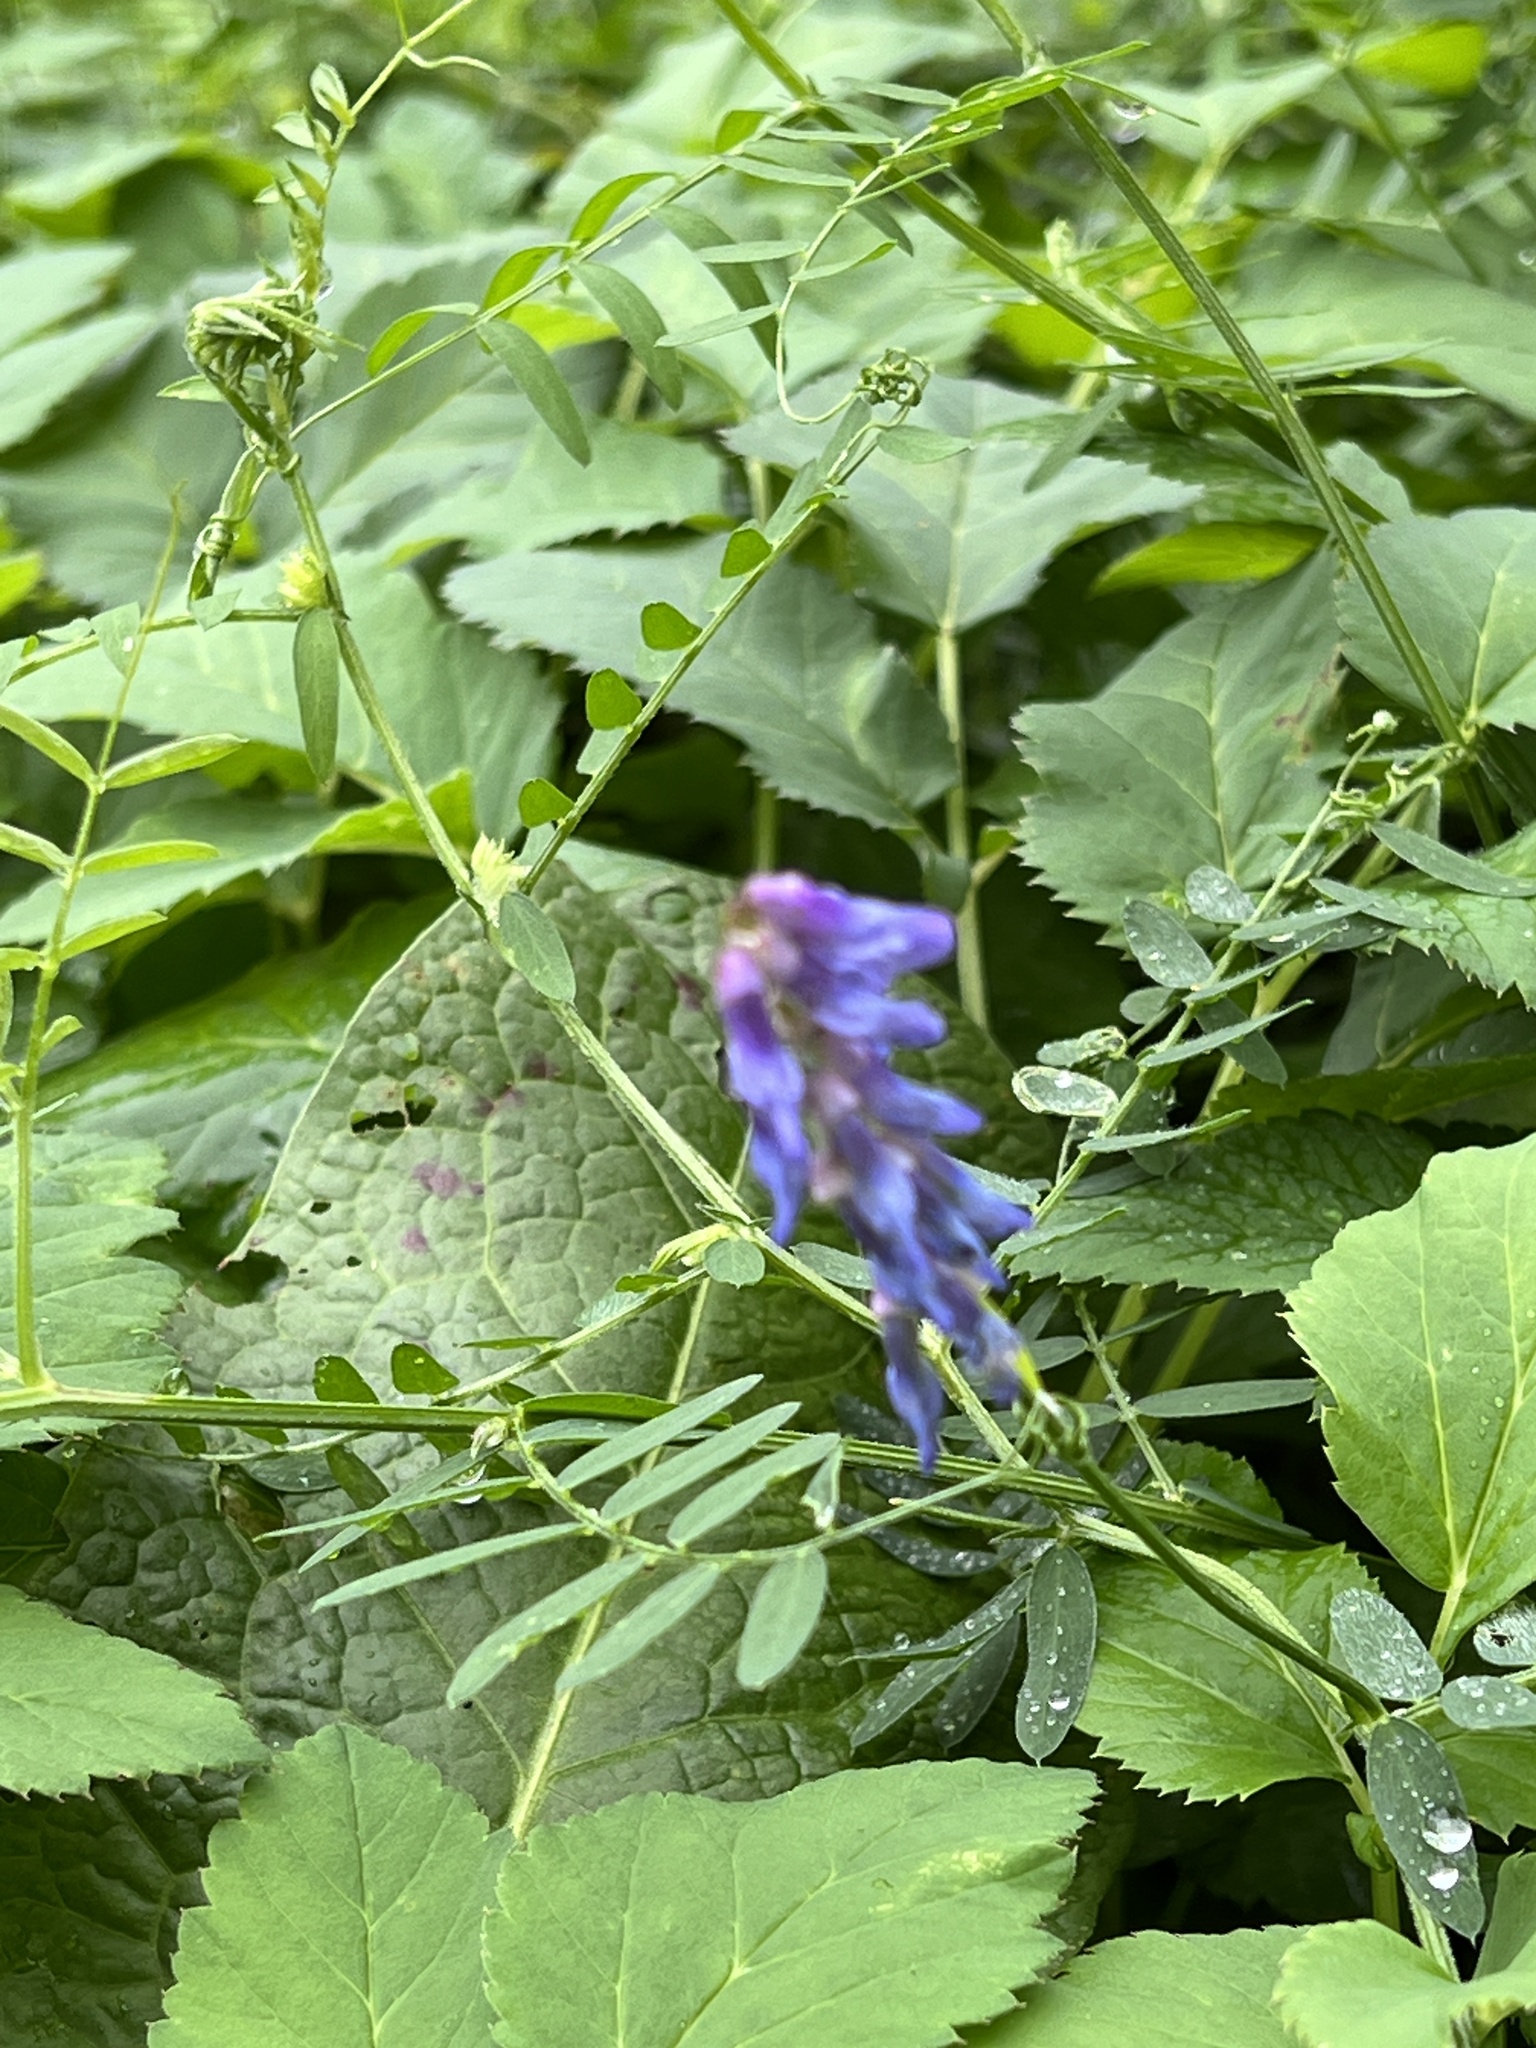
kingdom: Plantae
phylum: Tracheophyta
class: Magnoliopsida
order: Fabales
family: Fabaceae
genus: Vicia
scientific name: Vicia cracca
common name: Bird vetch
